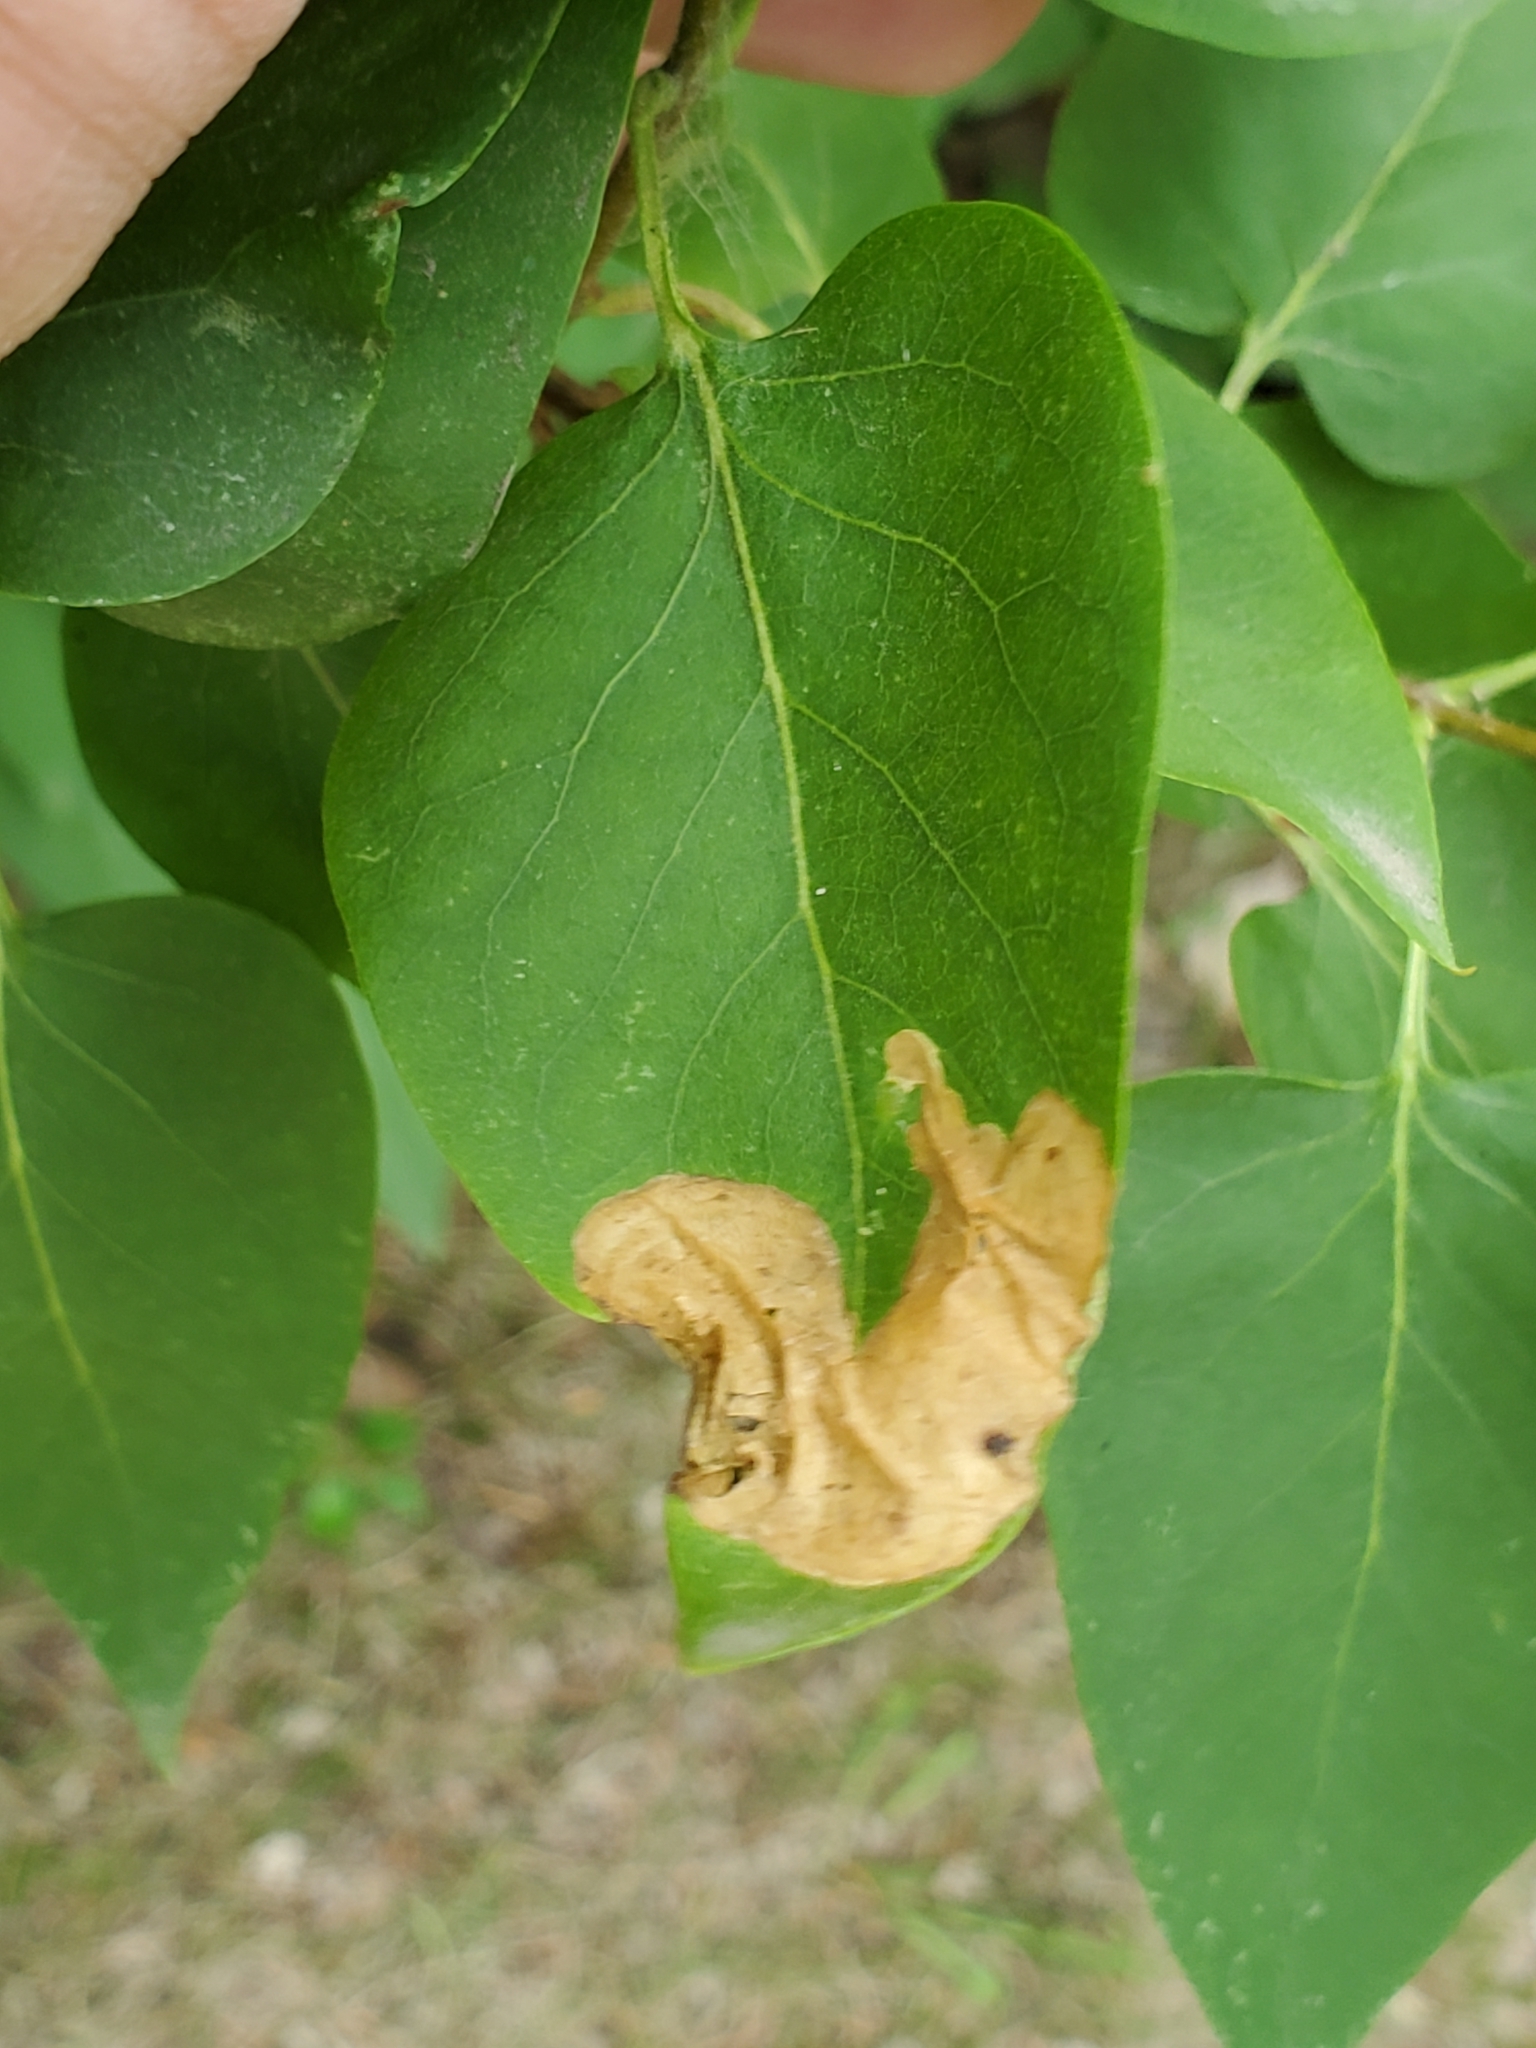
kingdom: Animalia
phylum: Arthropoda
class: Insecta
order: Lepidoptera
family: Gracillariidae
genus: Gracillaria
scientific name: Gracillaria syringella
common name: Common slender
